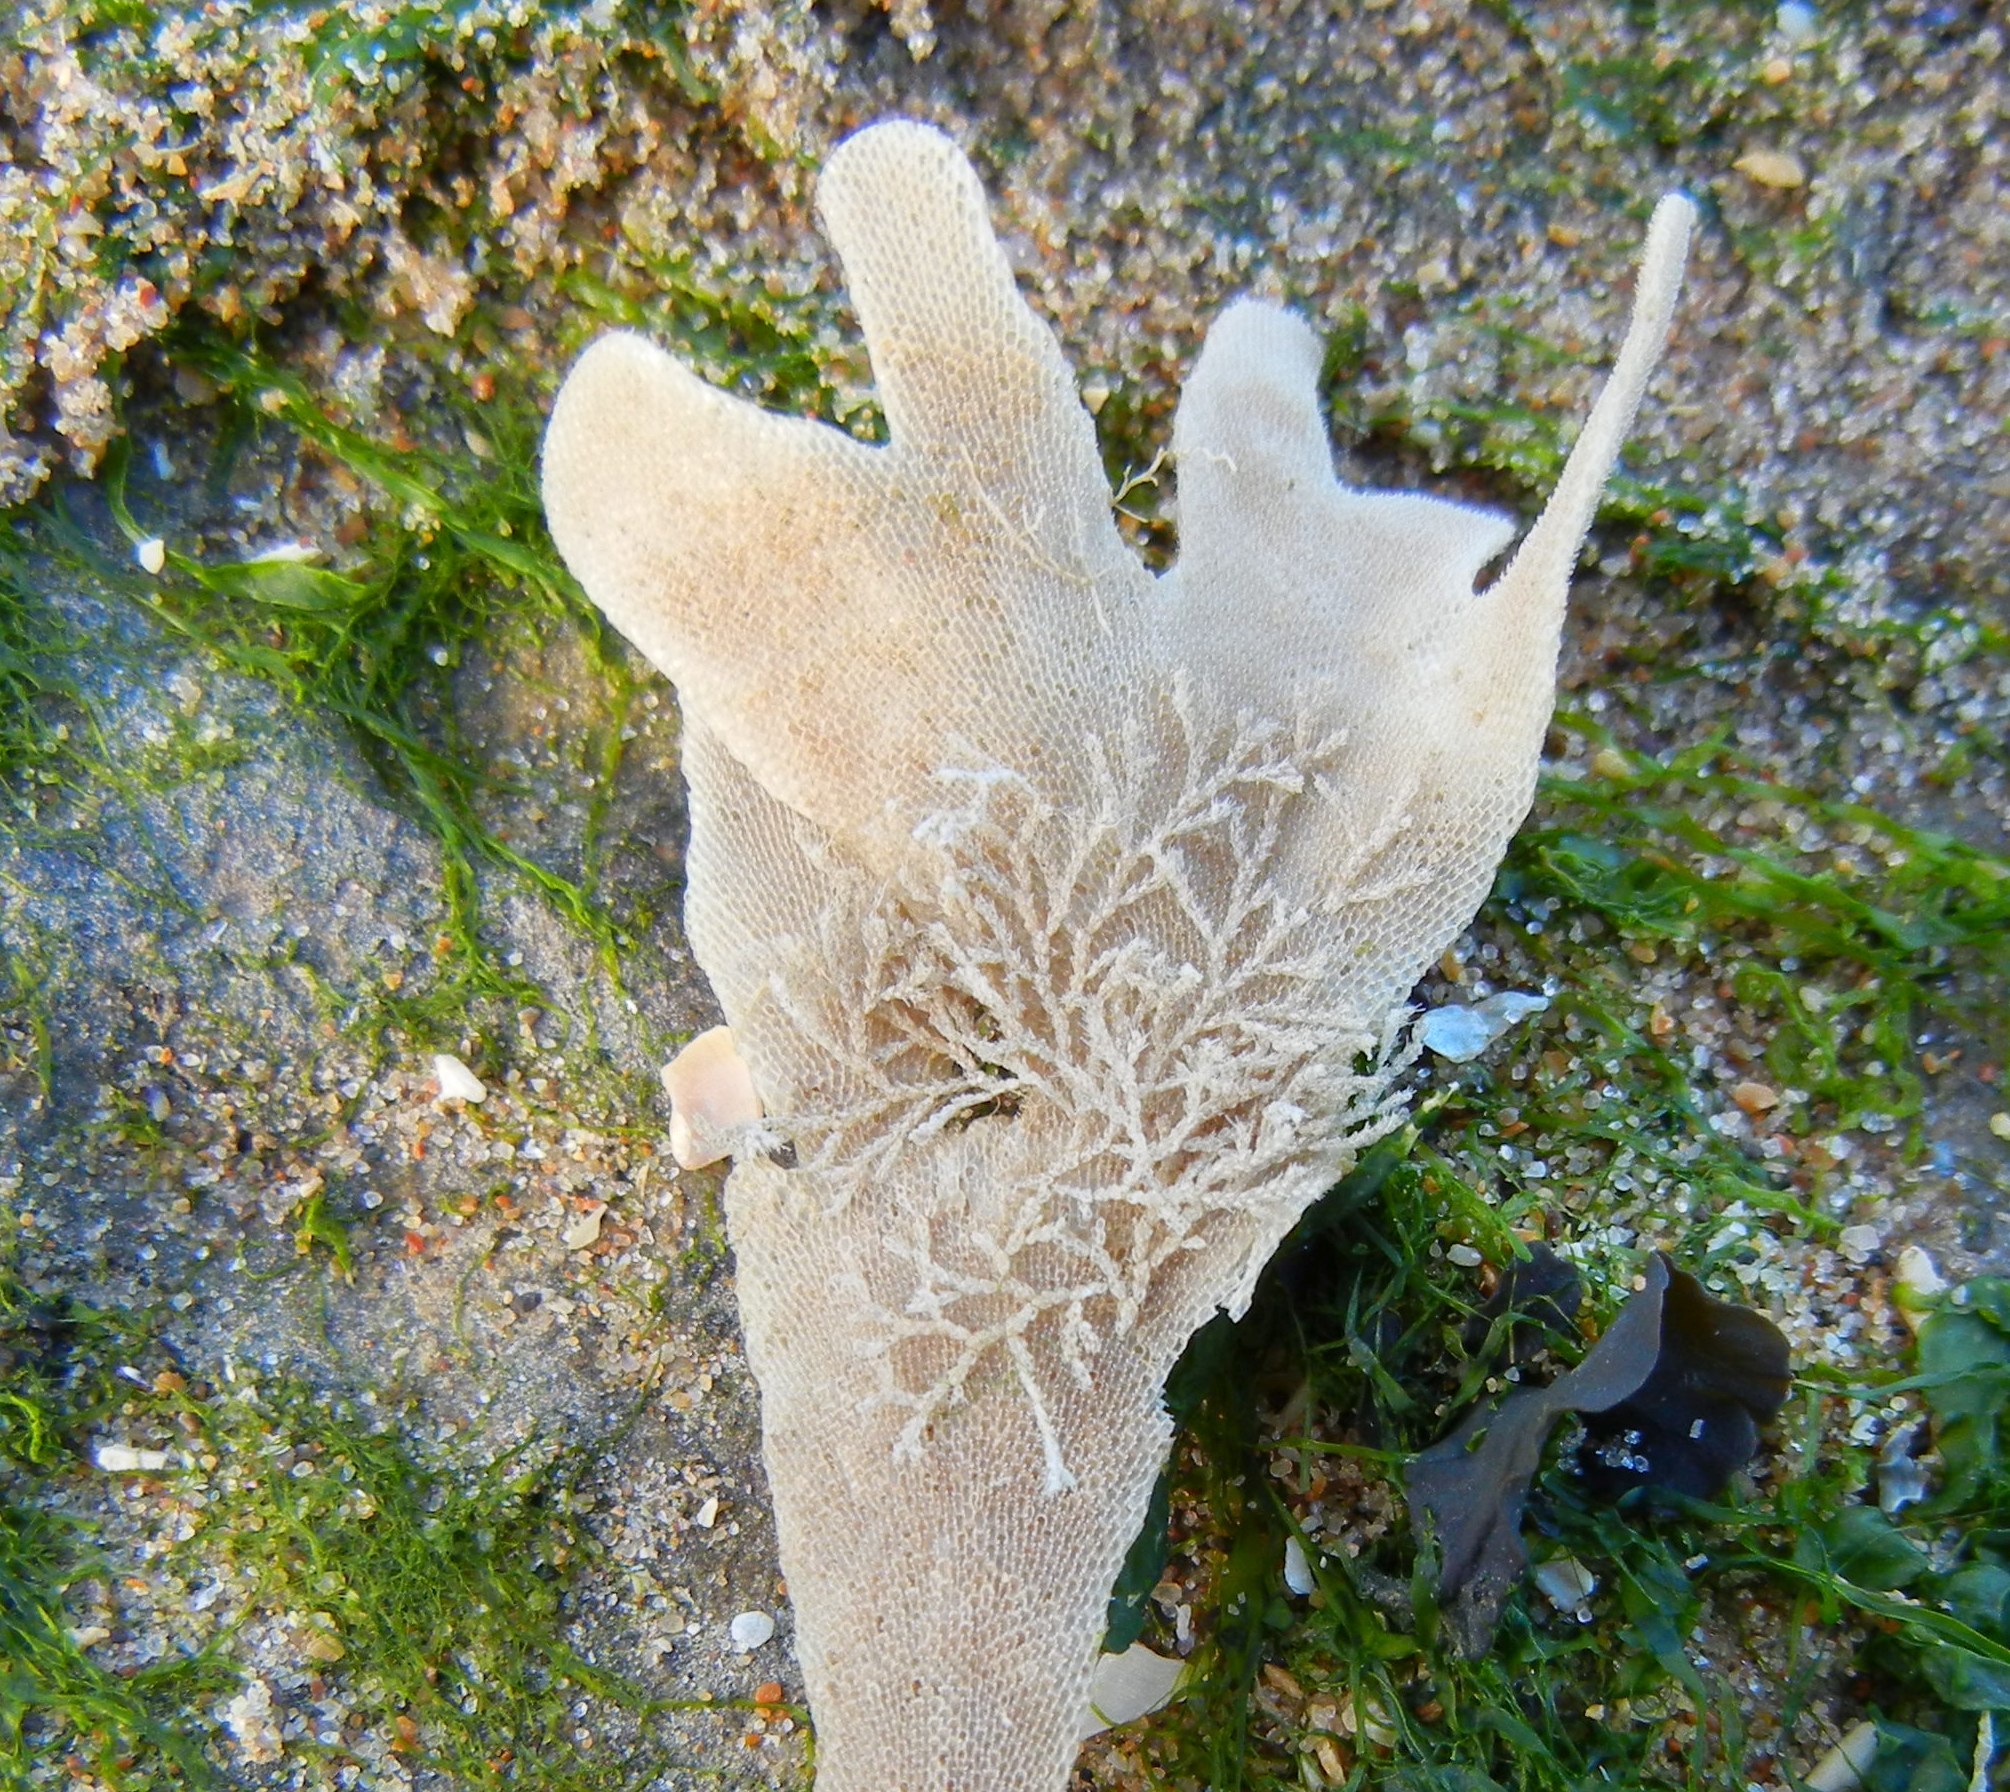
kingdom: Animalia
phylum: Bryozoa
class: Gymnolaemata
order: Cheilostomatida
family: Flustridae
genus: Flustra
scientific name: Flustra foliacea
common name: Hornwrack
